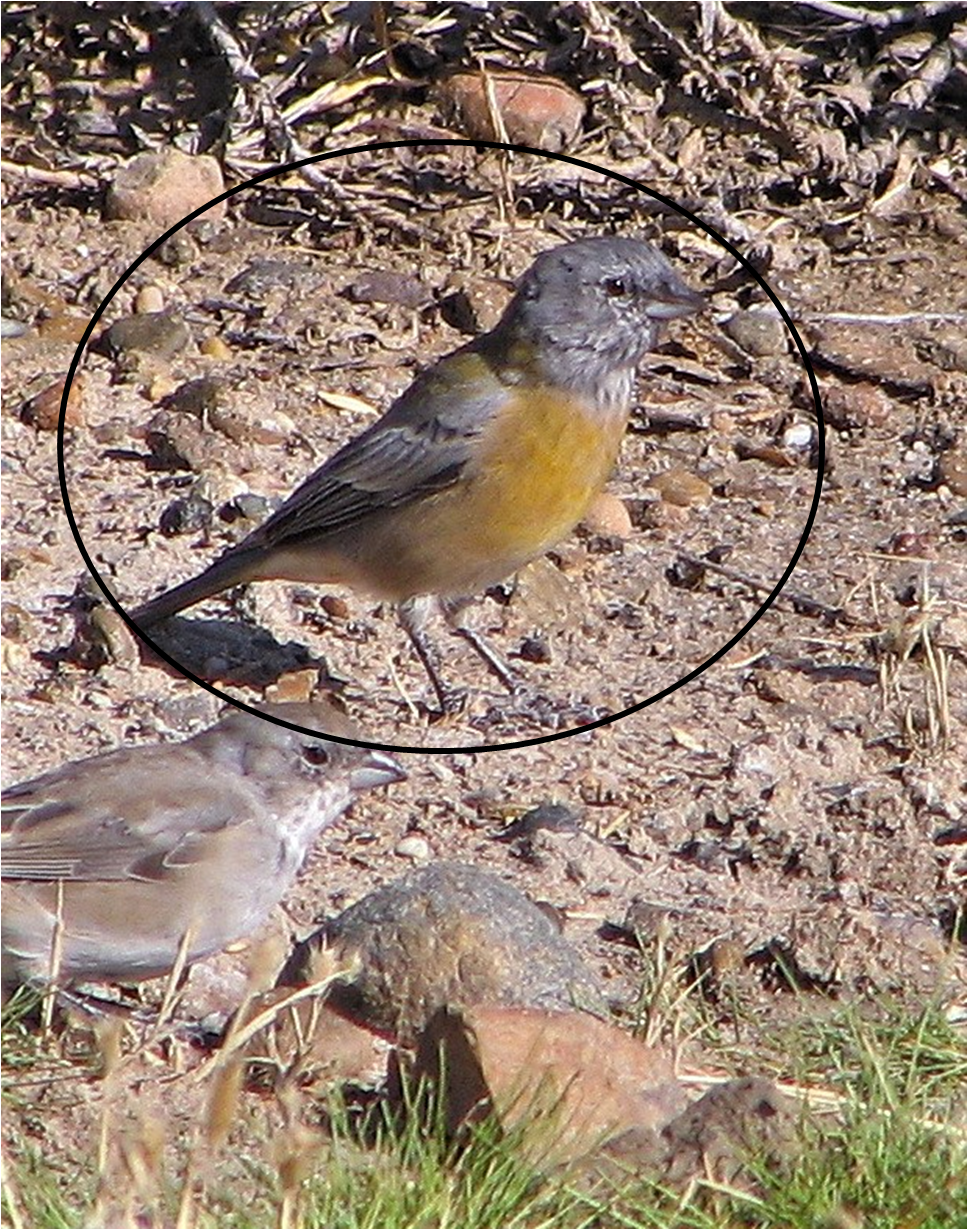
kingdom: Animalia
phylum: Chordata
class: Aves
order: Passeriformes
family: Thraupidae
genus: Phrygilus
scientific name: Phrygilus gayi
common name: Grey-hooded sierra finch
